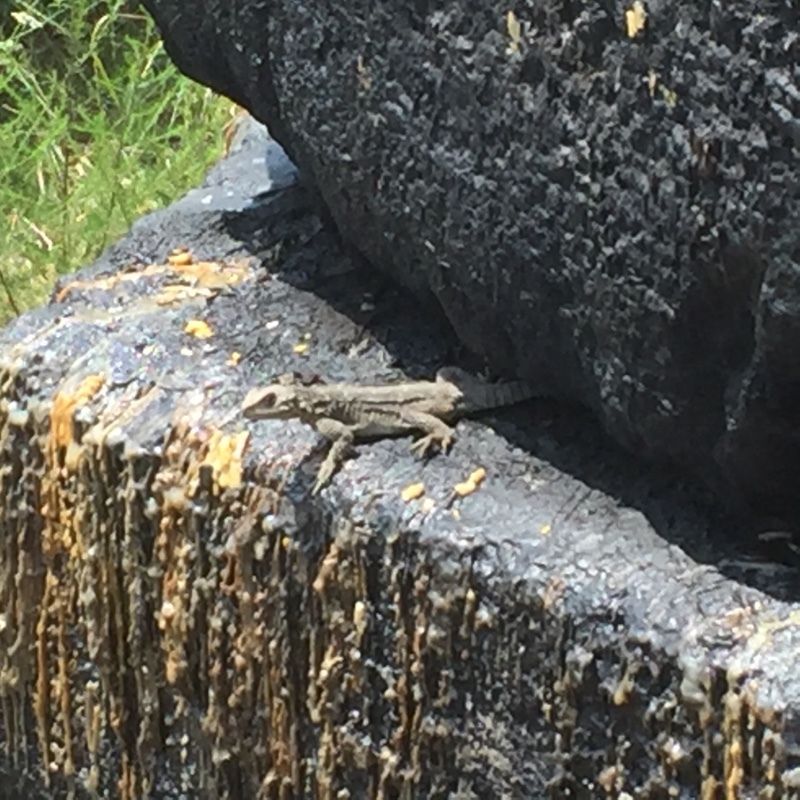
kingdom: Animalia
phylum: Chordata
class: Squamata
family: Agamidae
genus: Paralaudakia
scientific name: Paralaudakia caucasia
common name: Caucasian agama
